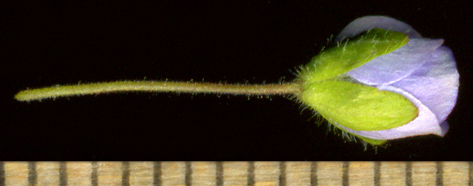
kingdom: Plantae
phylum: Tracheophyta
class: Magnoliopsida
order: Lamiales
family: Plantaginaceae
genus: Veronica
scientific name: Veronica filiformis
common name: Slender speedwell
